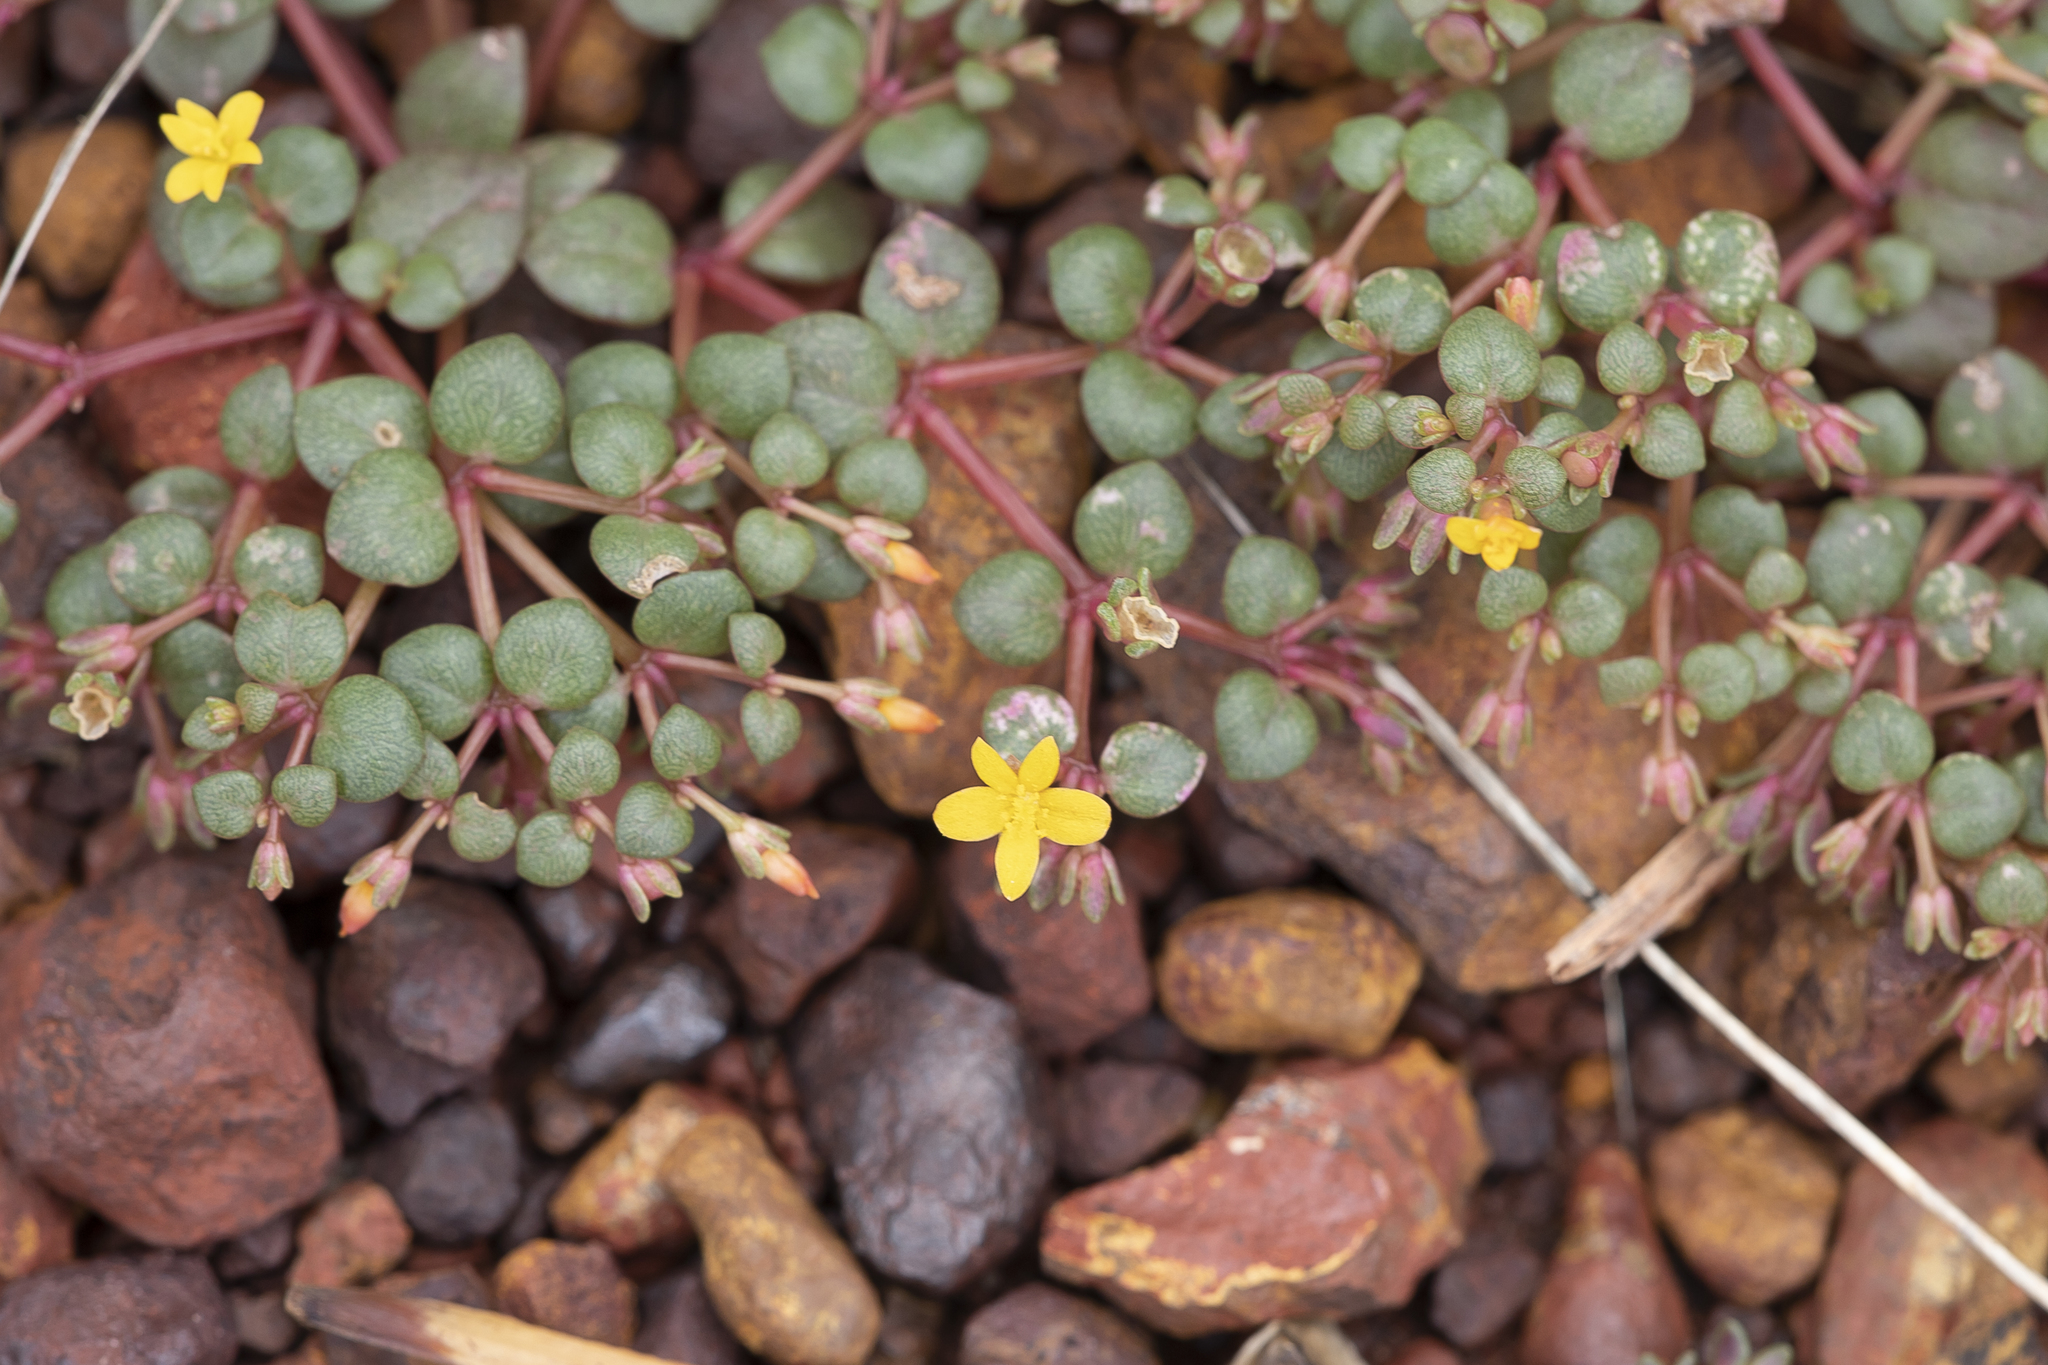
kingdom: Plantae
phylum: Tracheophyta
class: Magnoliopsida
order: Caryophyllales
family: Portulacaceae
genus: Portulaca
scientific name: Portulaca bicolor
